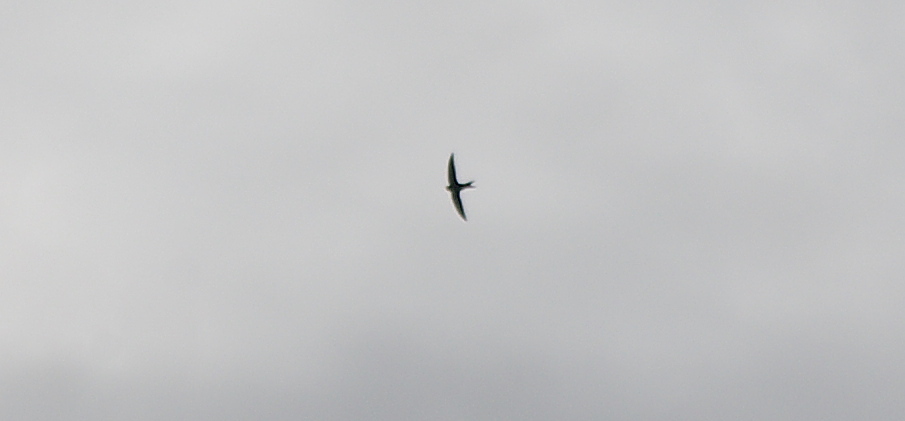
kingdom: Animalia
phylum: Chordata
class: Aves
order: Apodiformes
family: Apodidae
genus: Apus
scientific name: Apus apus
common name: Common swift
